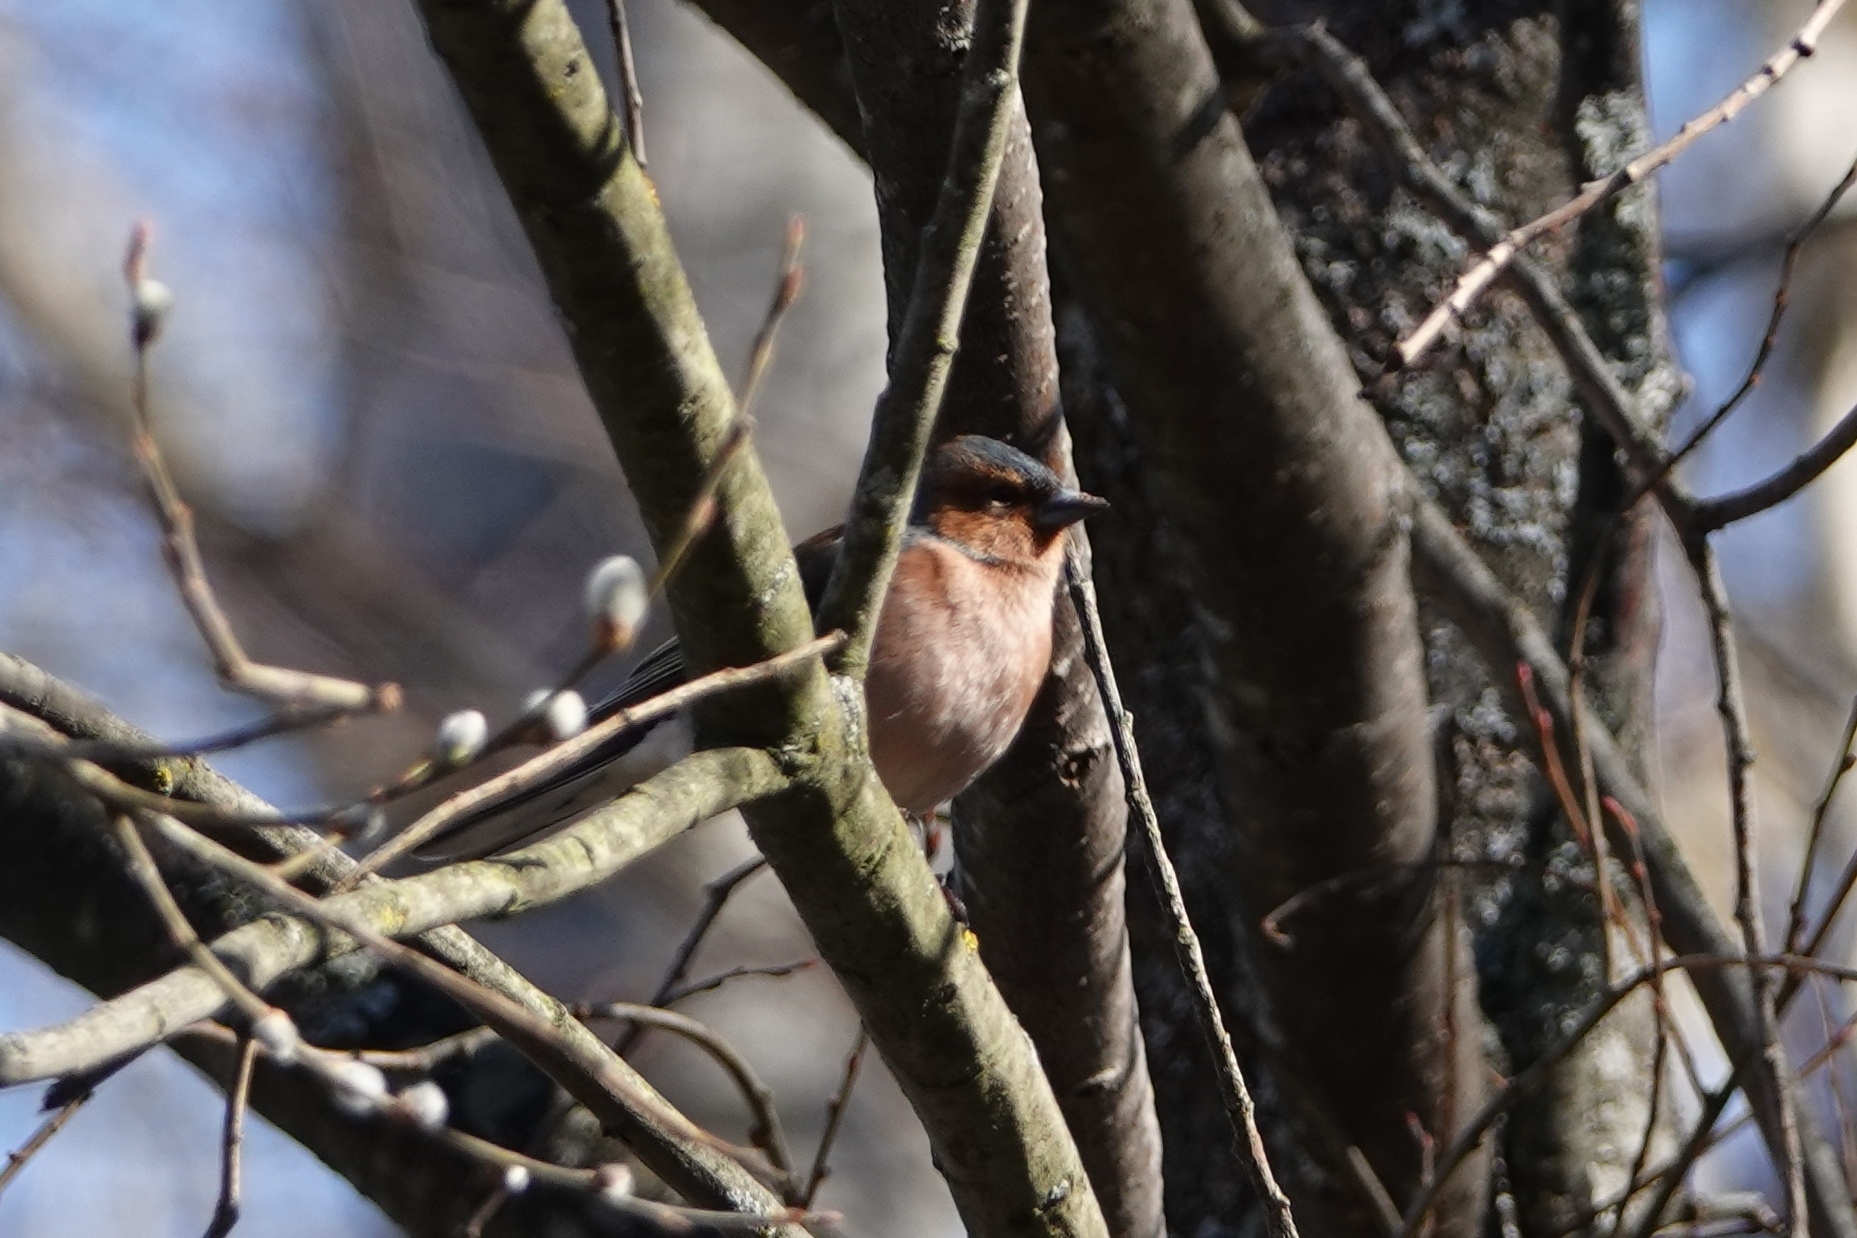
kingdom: Animalia
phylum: Chordata
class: Aves
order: Passeriformes
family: Fringillidae
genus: Fringilla
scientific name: Fringilla coelebs
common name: Common chaffinch
